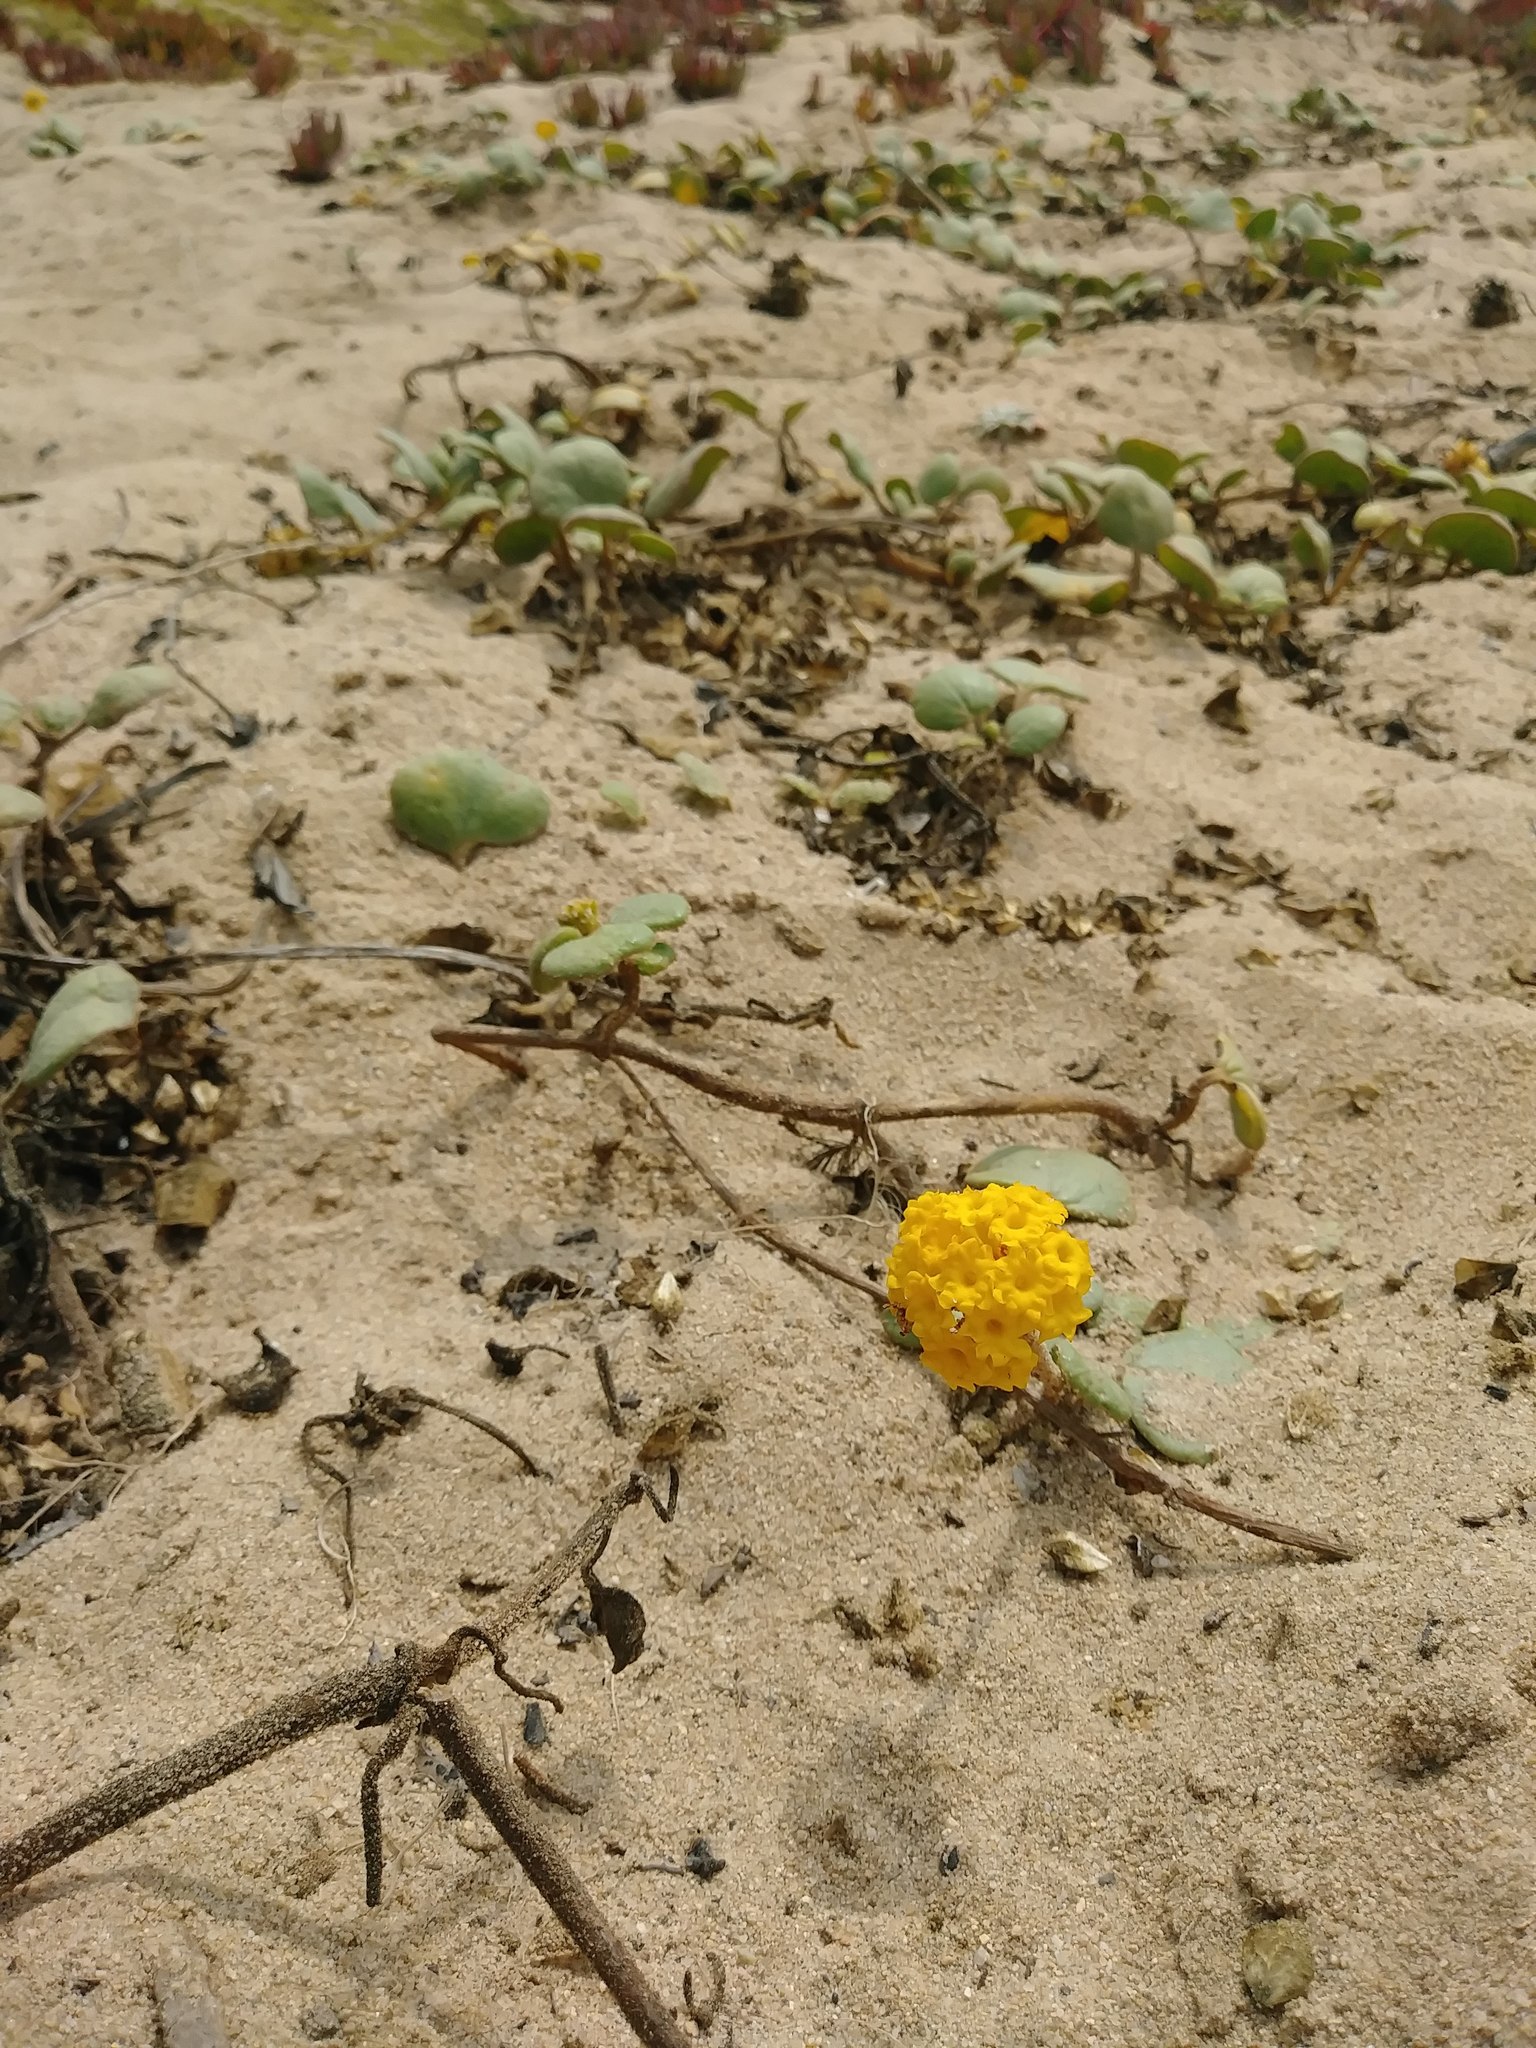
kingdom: Plantae
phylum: Tracheophyta
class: Magnoliopsida
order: Caryophyllales
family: Nyctaginaceae
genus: Abronia
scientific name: Abronia latifolia
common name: Yellow sand-verbena
